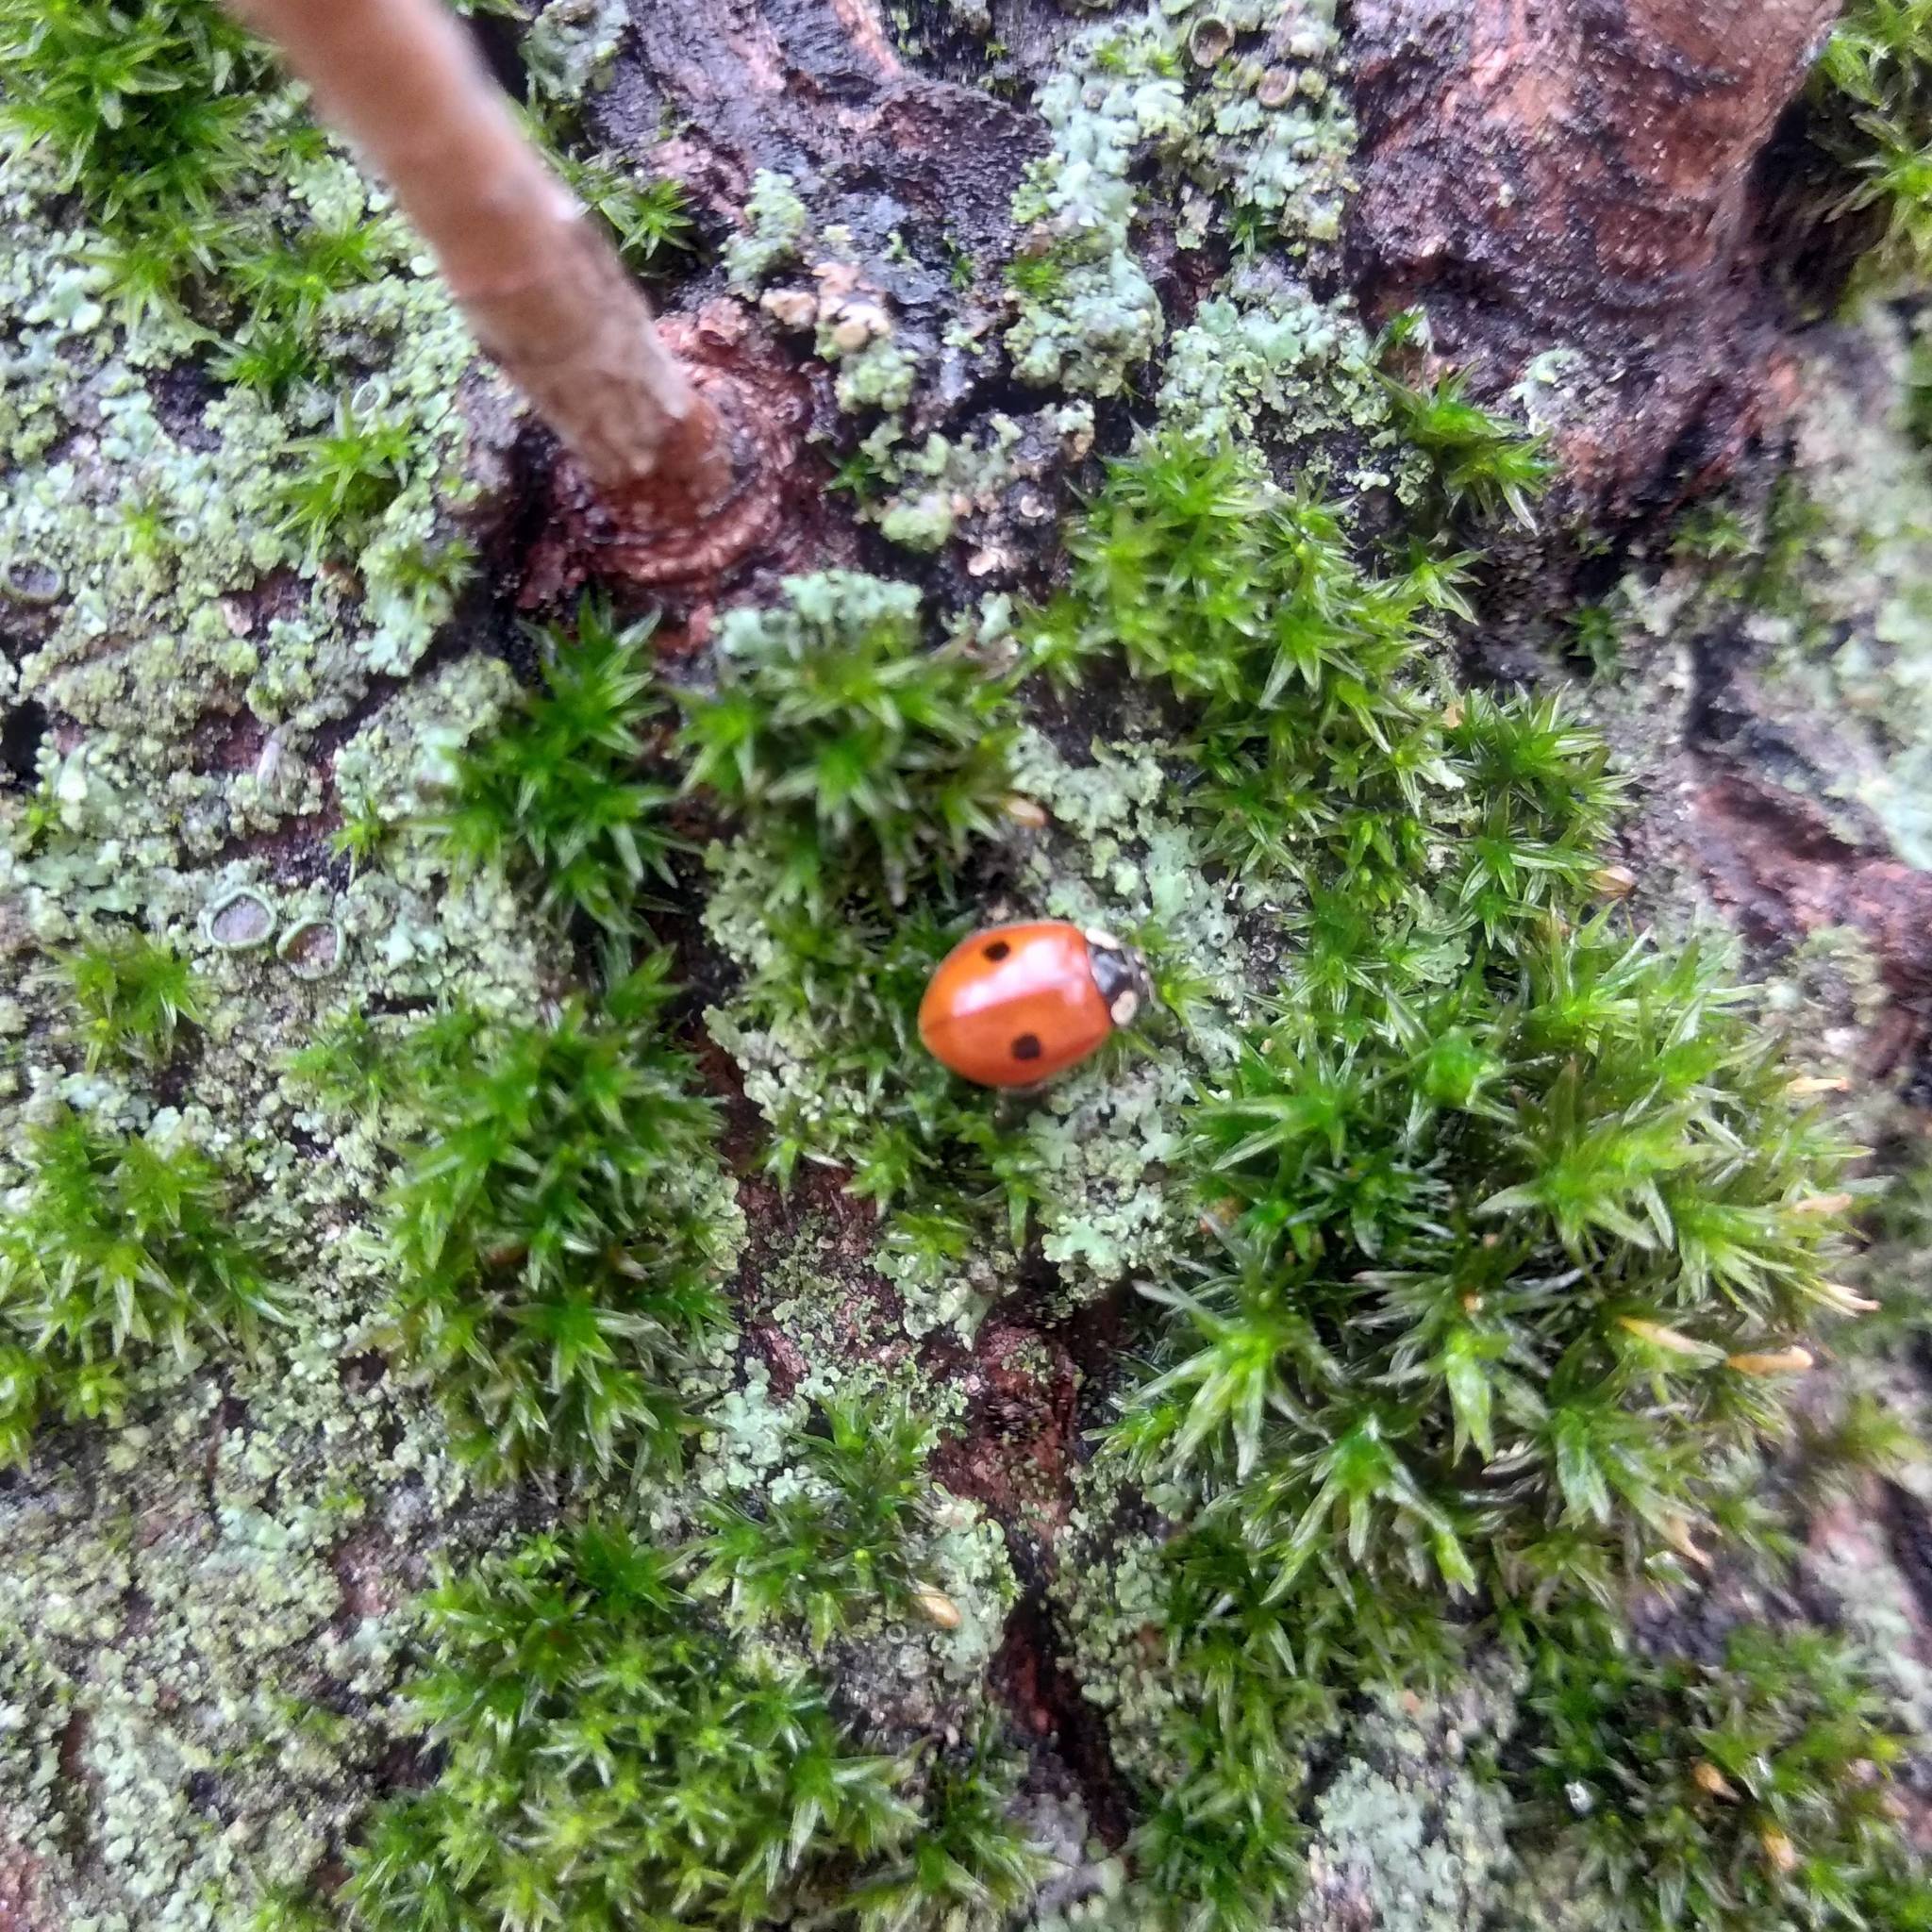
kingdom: Animalia
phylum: Arthropoda
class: Insecta
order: Coleoptera
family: Coccinellidae
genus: Adalia
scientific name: Adalia bipunctata
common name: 2-spot ladybird
